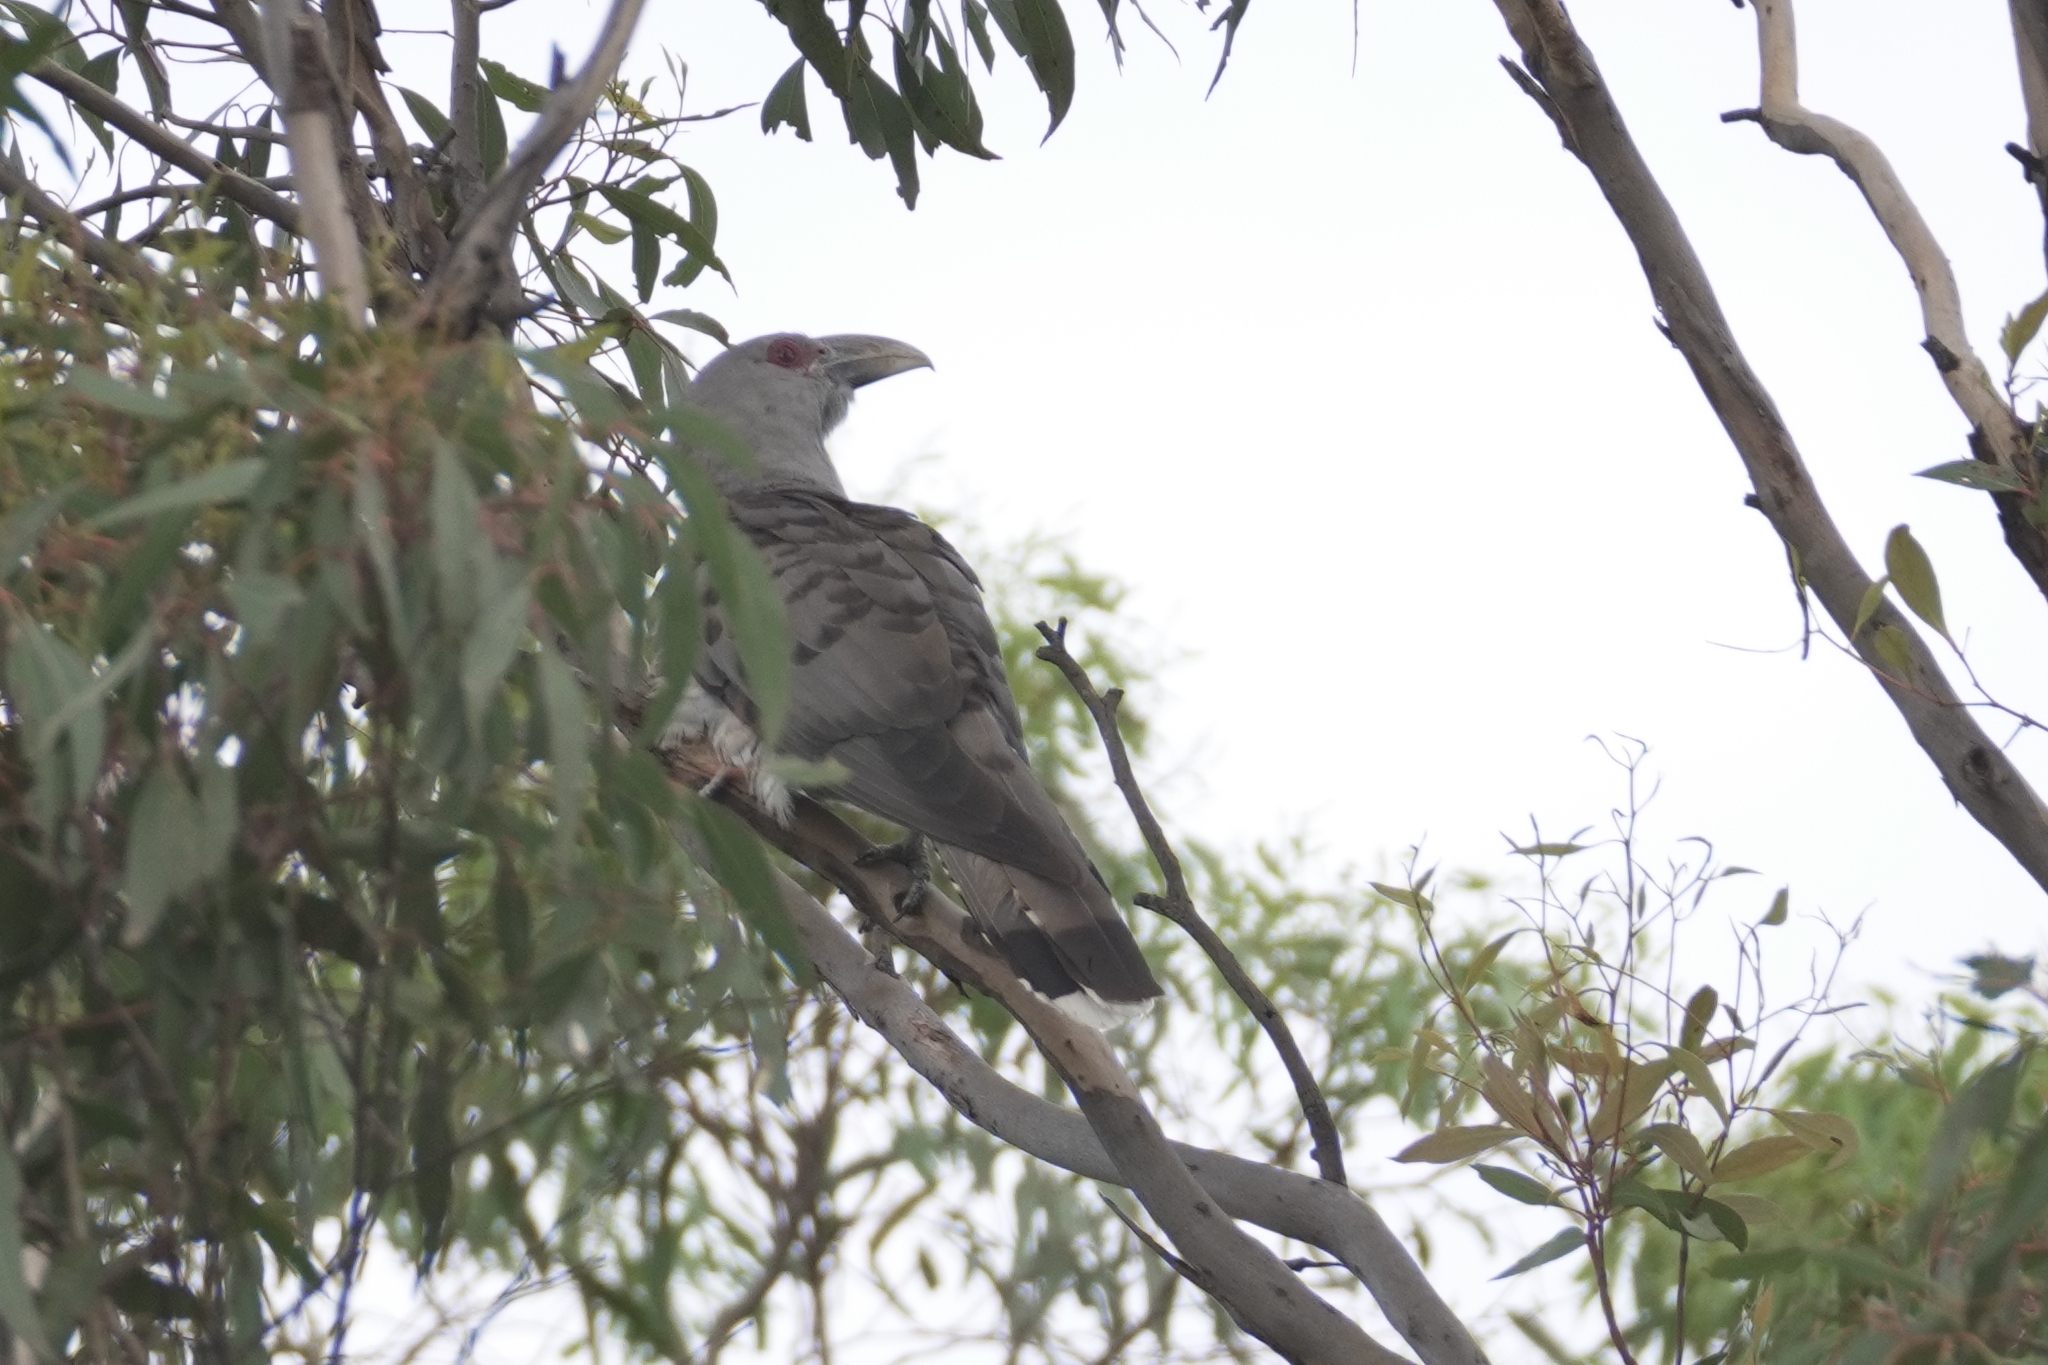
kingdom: Animalia
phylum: Chordata
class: Aves
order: Cuculiformes
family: Cuculidae
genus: Scythrops
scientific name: Scythrops novaehollandiae
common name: Channel-billed cuckoo
